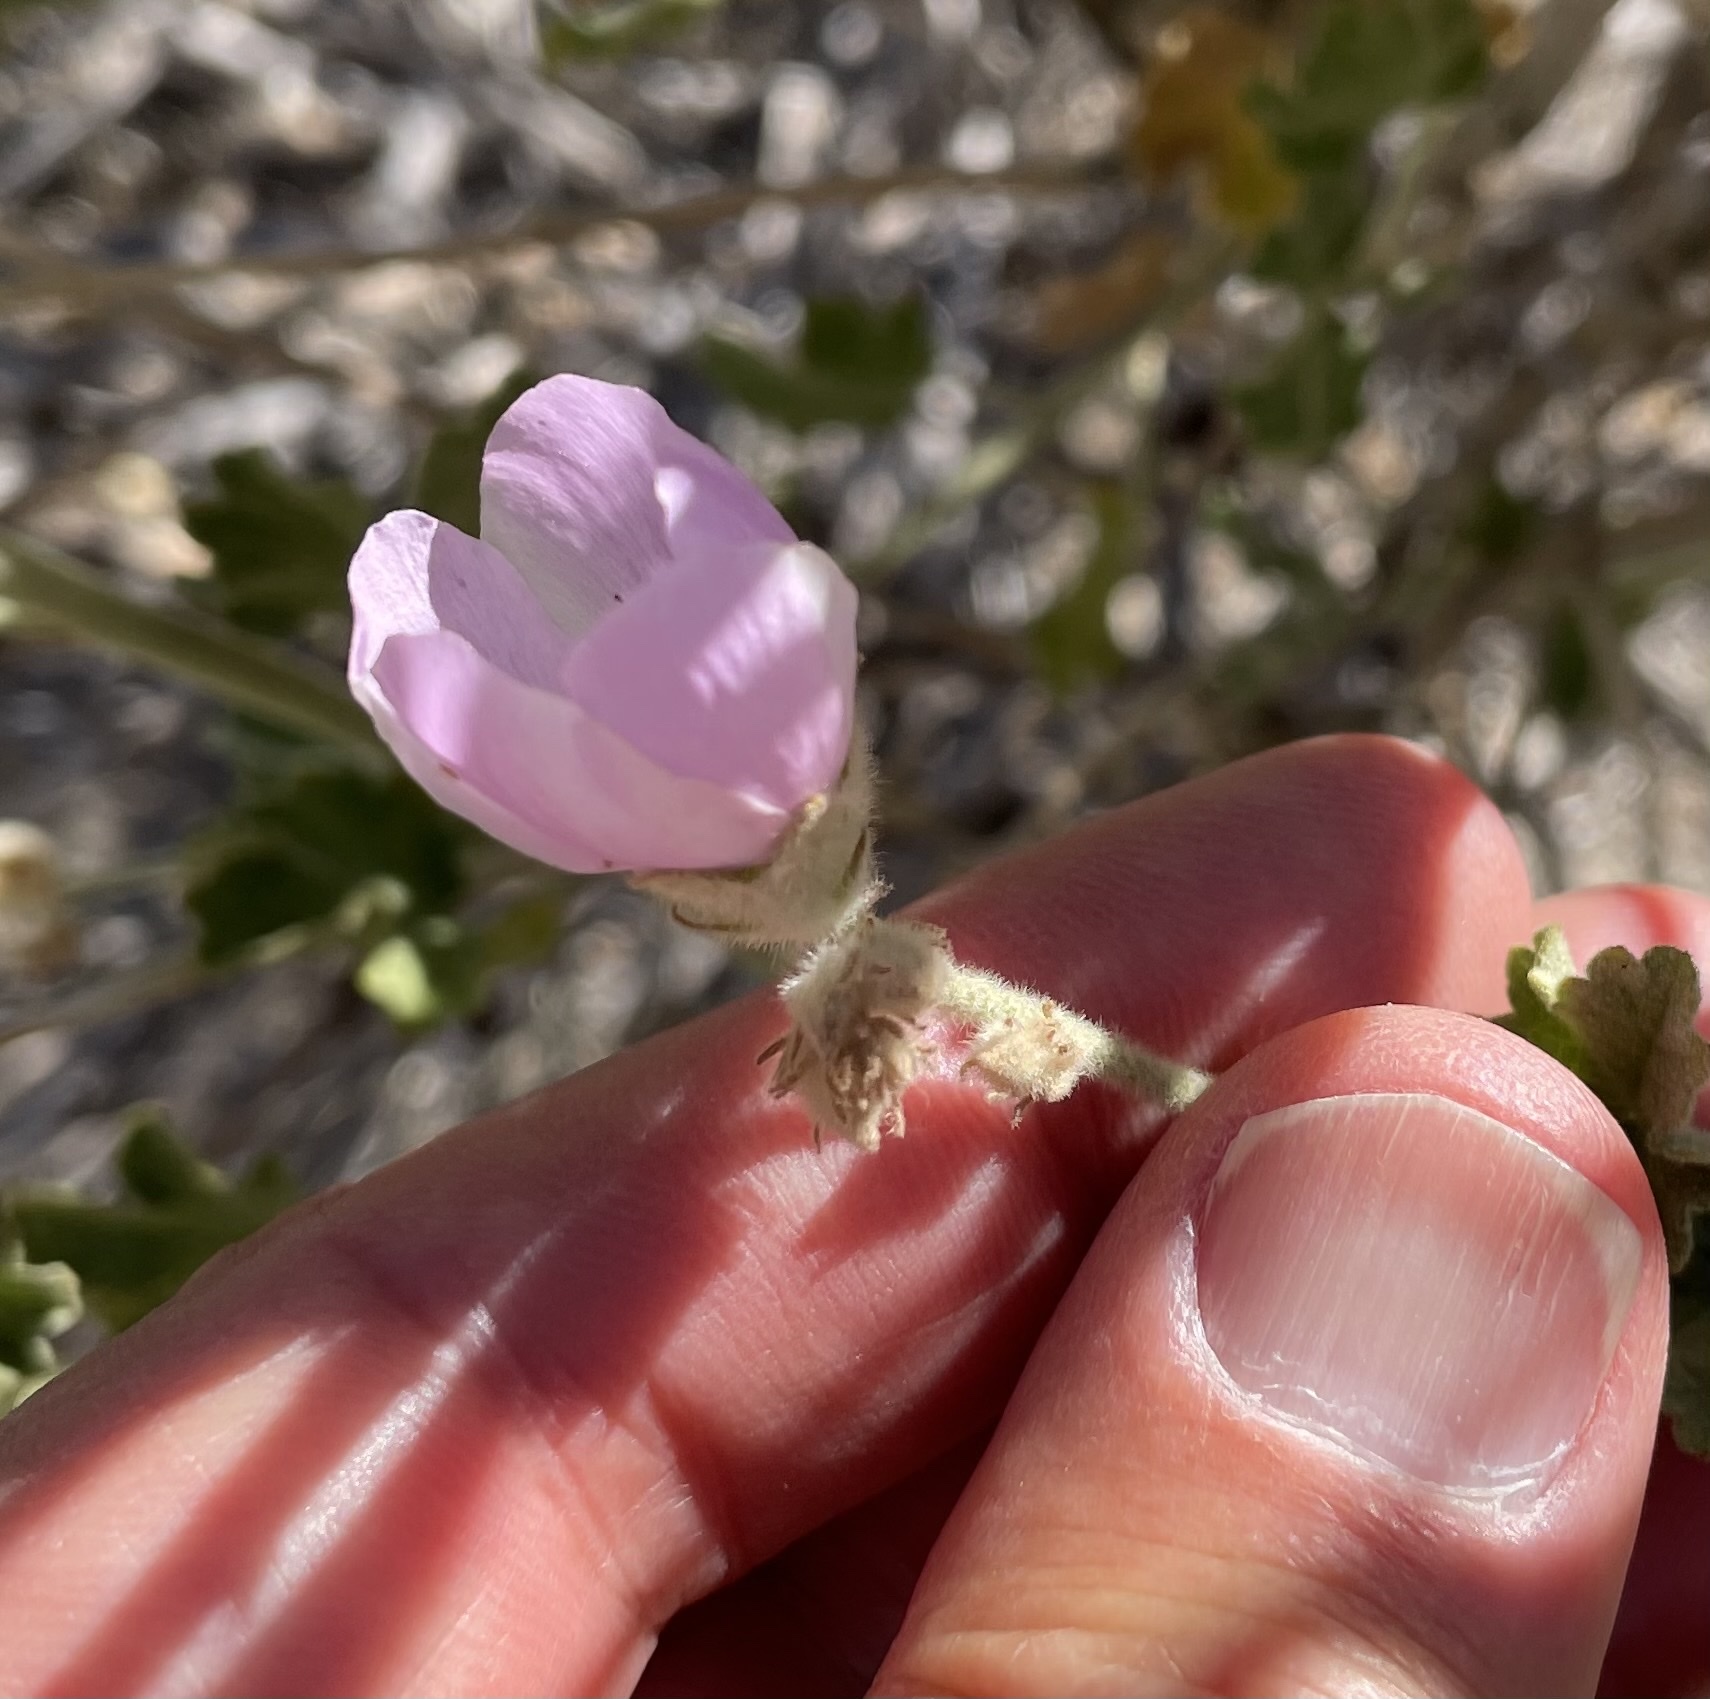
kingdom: Plantae
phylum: Tracheophyta
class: Magnoliopsida
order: Malvales
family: Malvaceae
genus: Malacothamnus
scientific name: Malacothamnus fremontii
